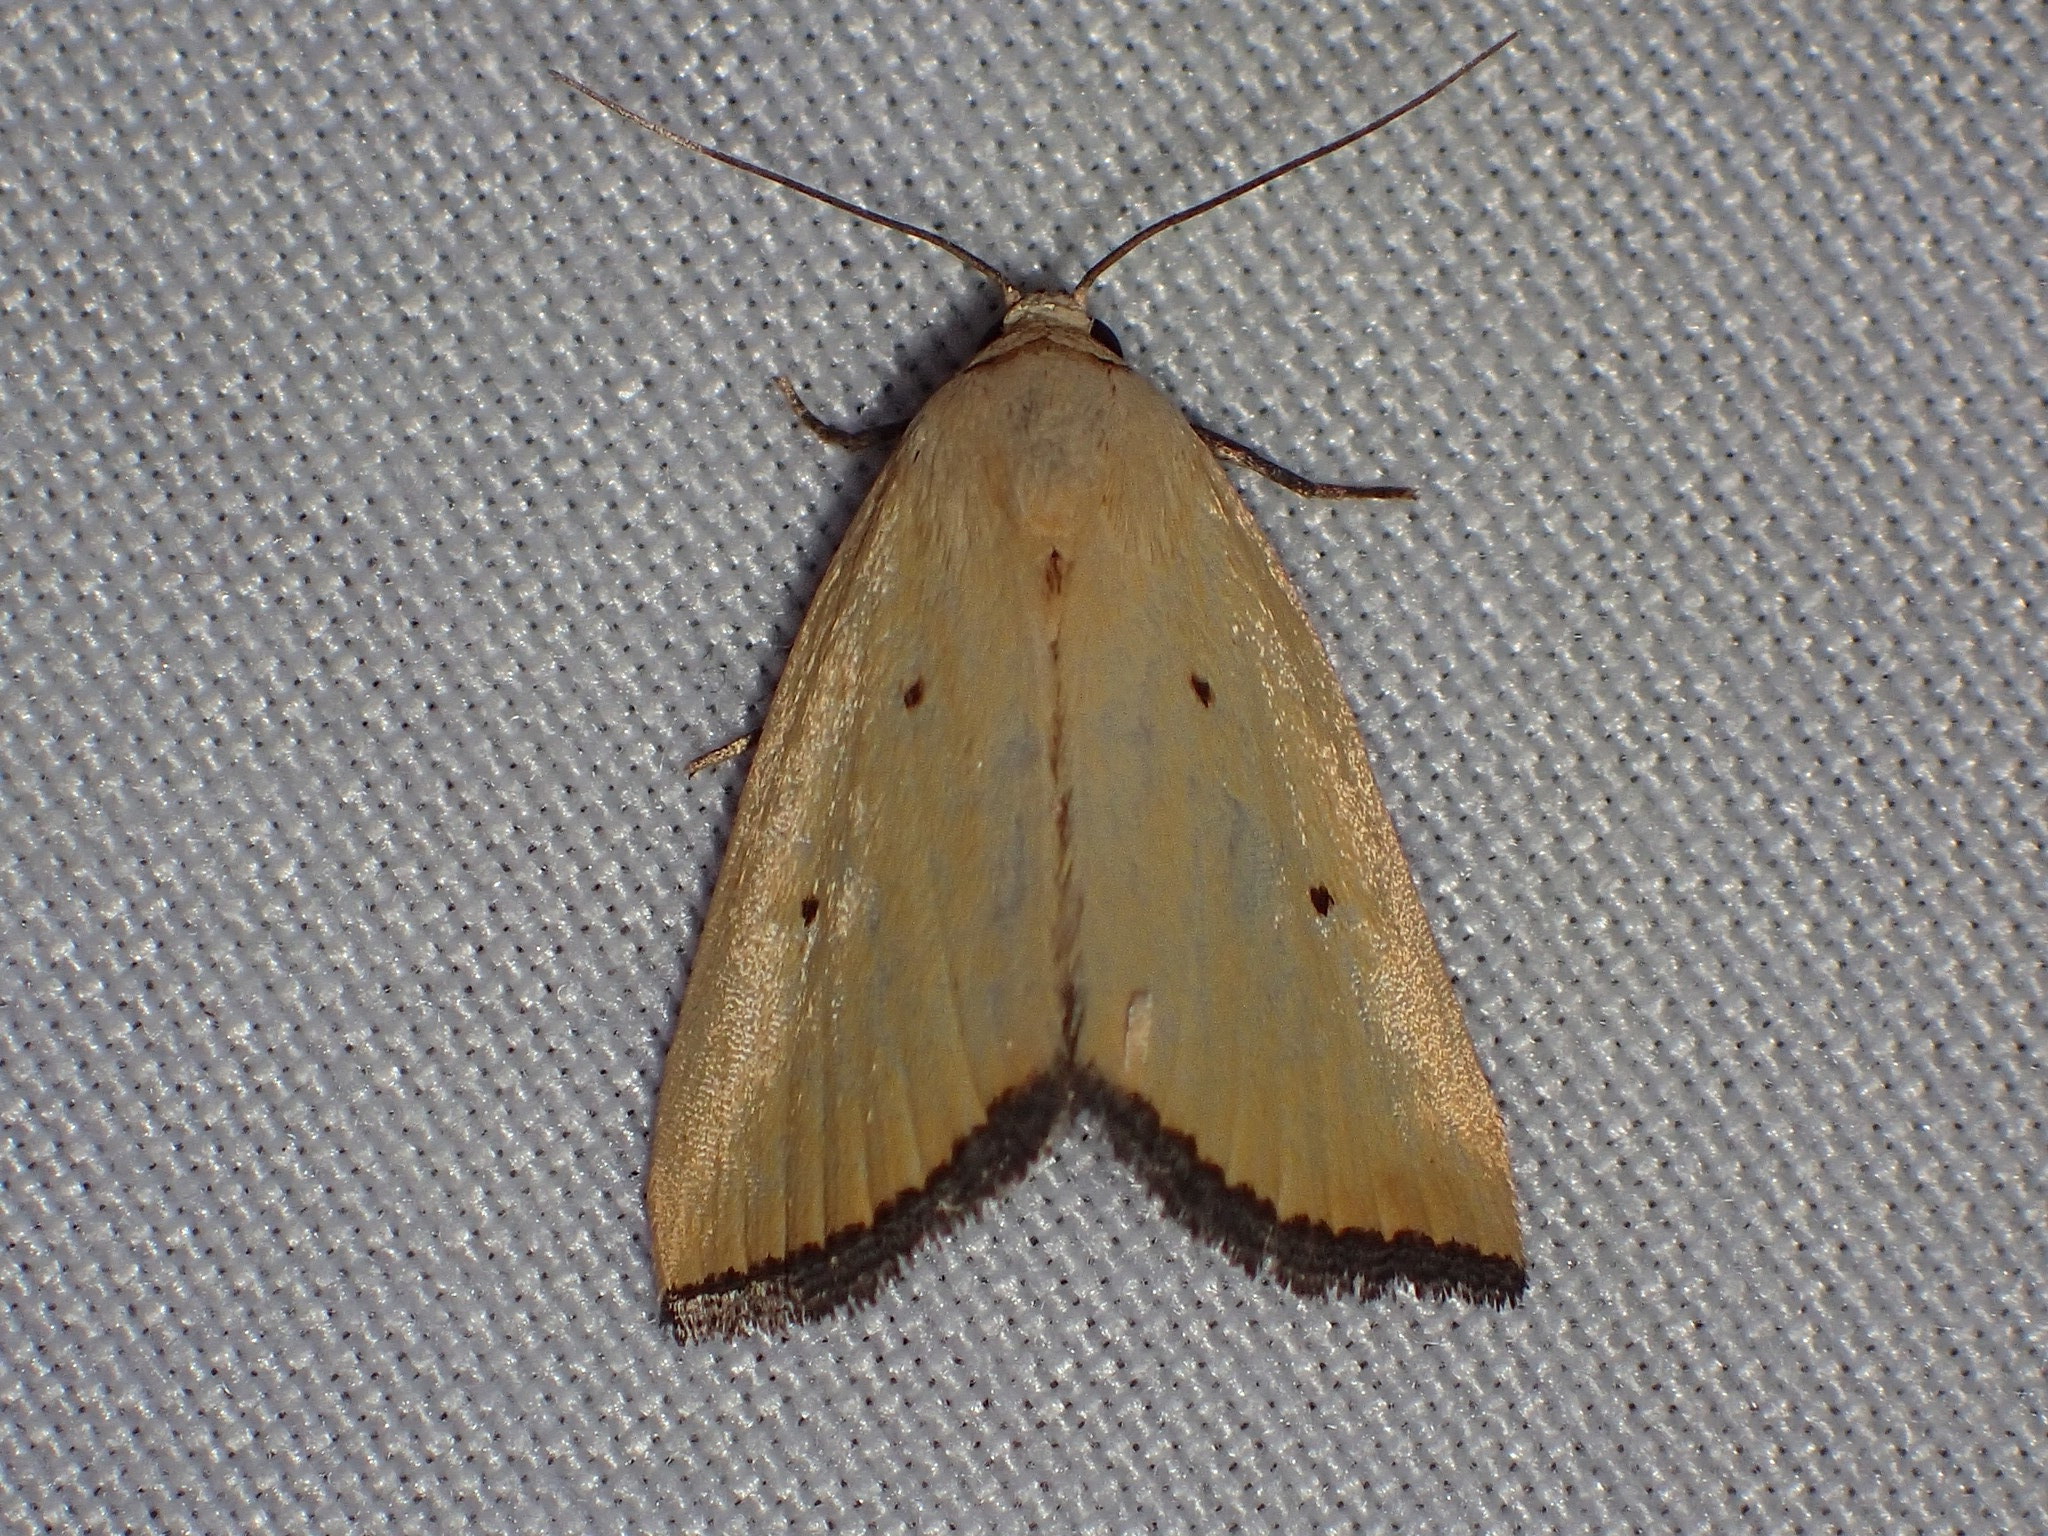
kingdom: Animalia
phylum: Arthropoda
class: Insecta
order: Lepidoptera
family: Noctuidae
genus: Marimatha
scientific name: Marimatha nigrofimbria
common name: Black-bordered lemon moth
